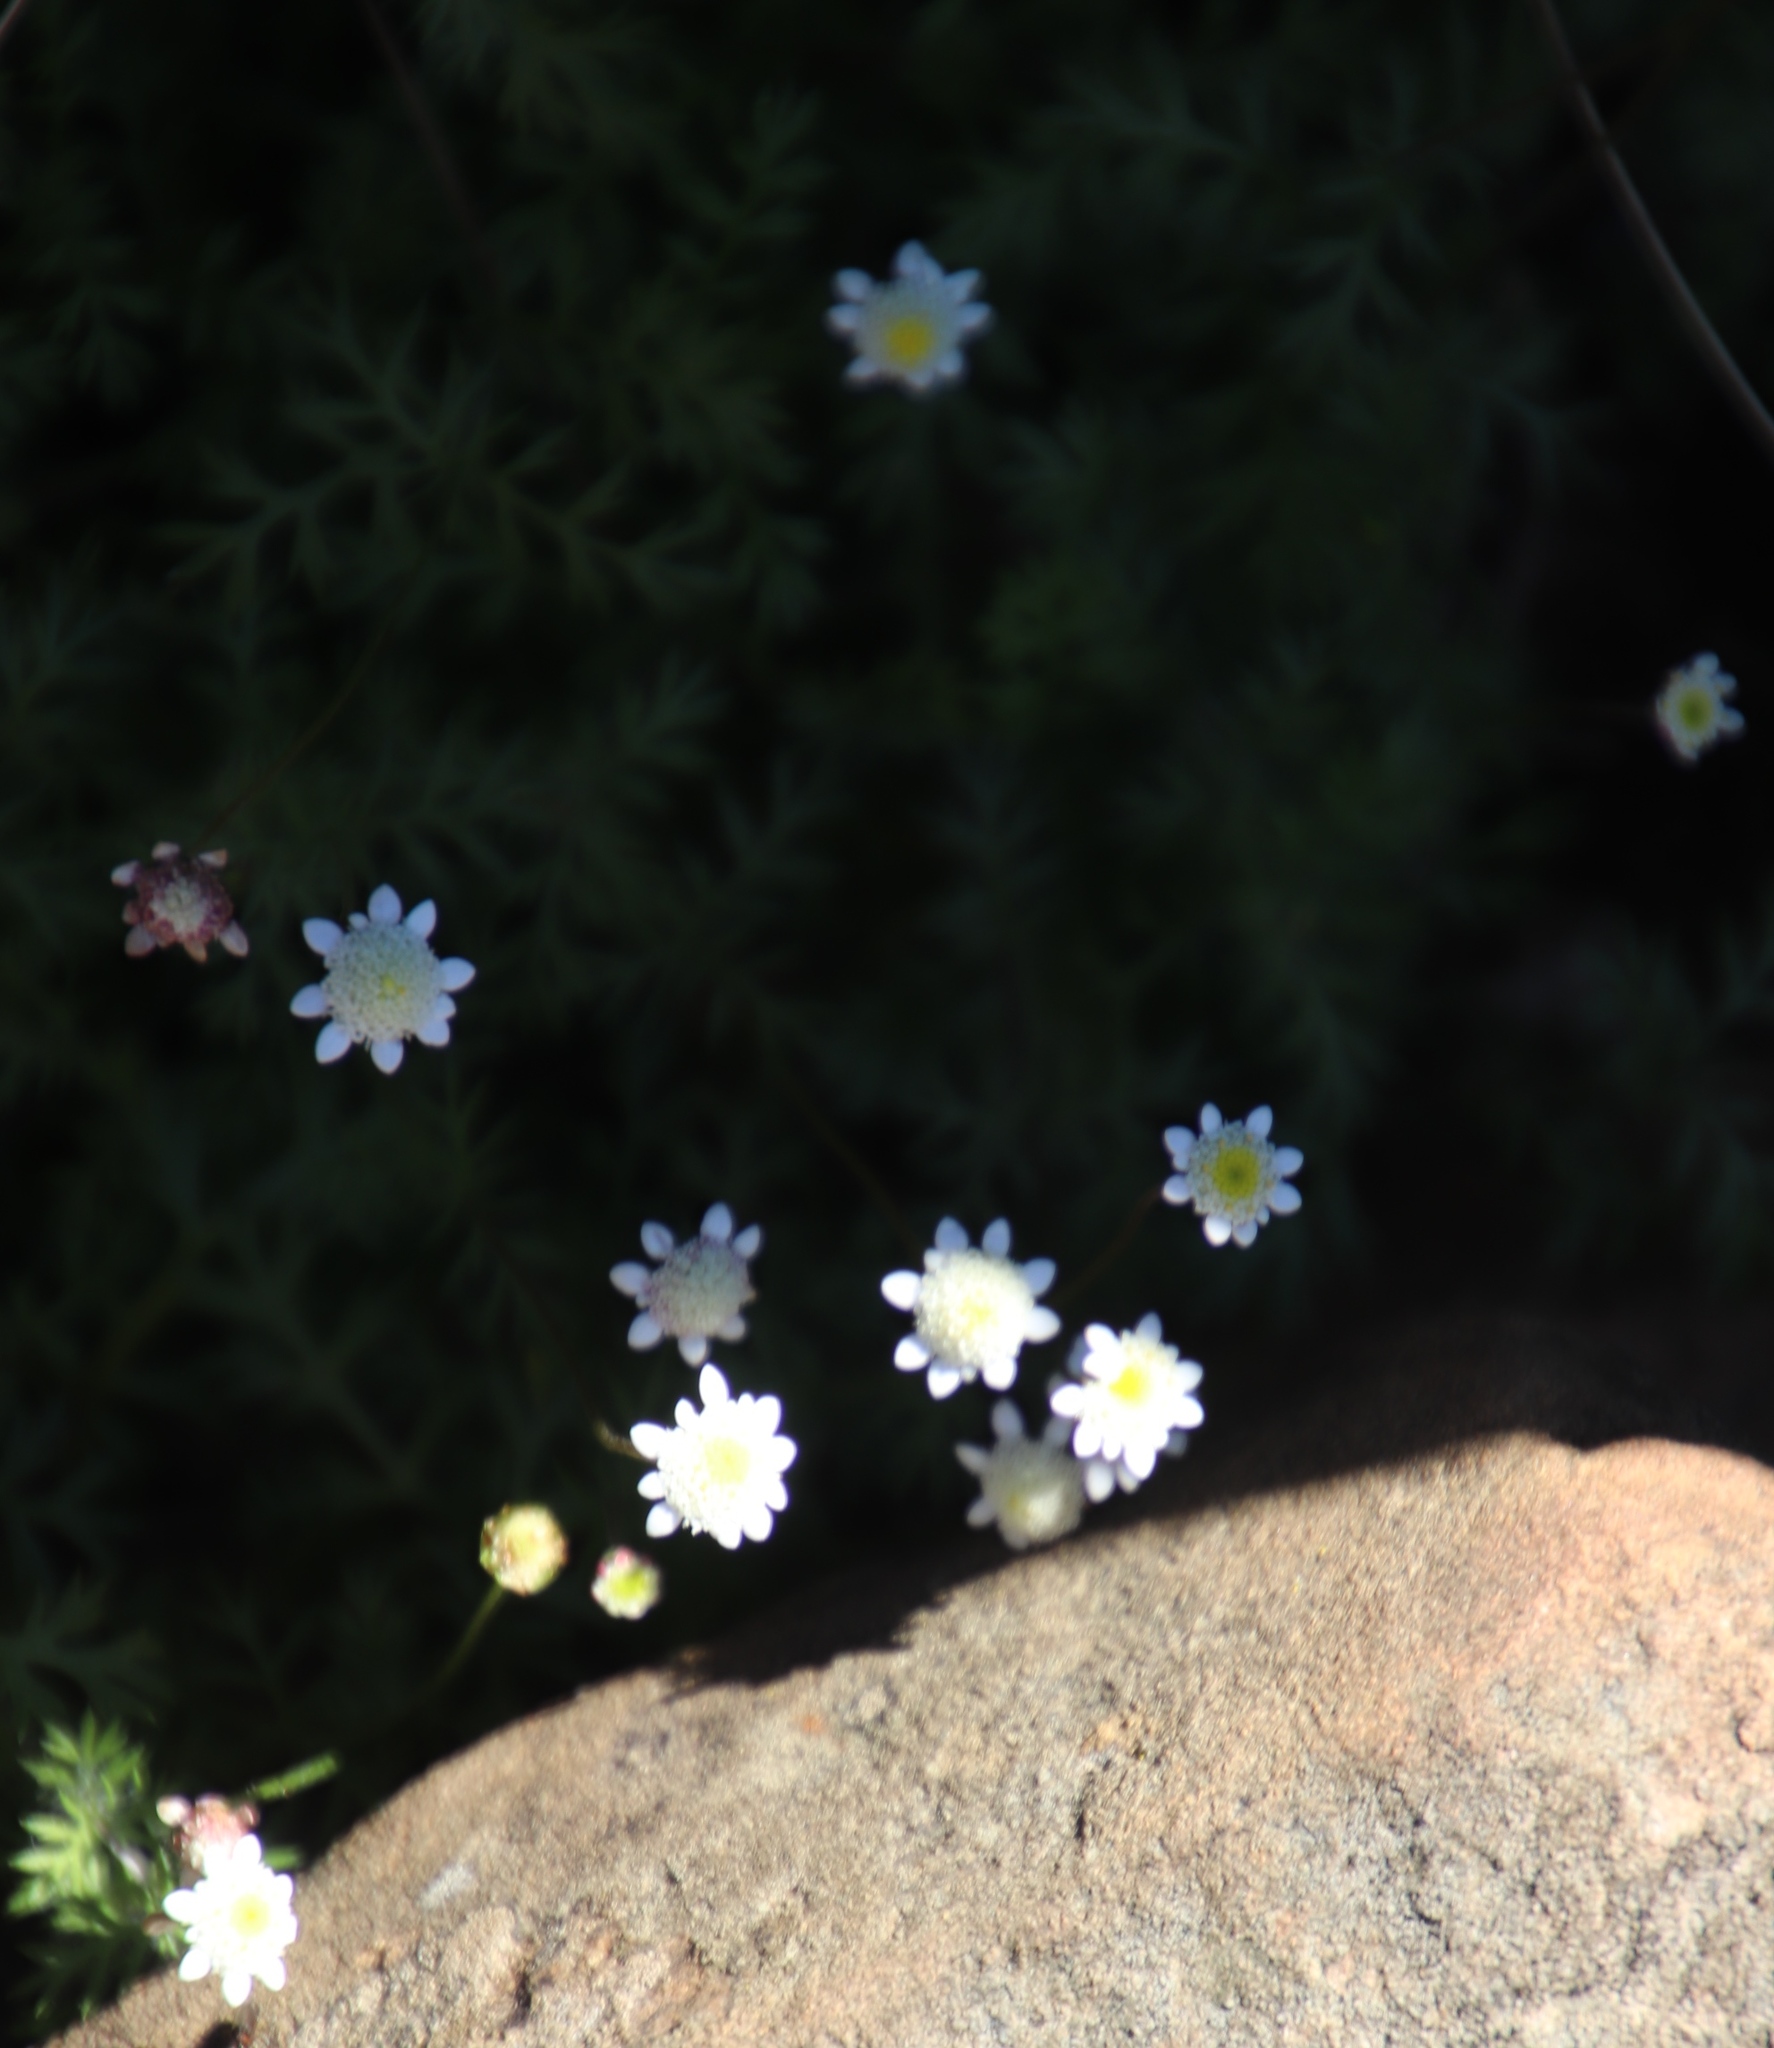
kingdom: Plantae
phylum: Tracheophyta
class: Magnoliopsida
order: Asterales
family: Asteraceae
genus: Cotula
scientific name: Cotula perennans
